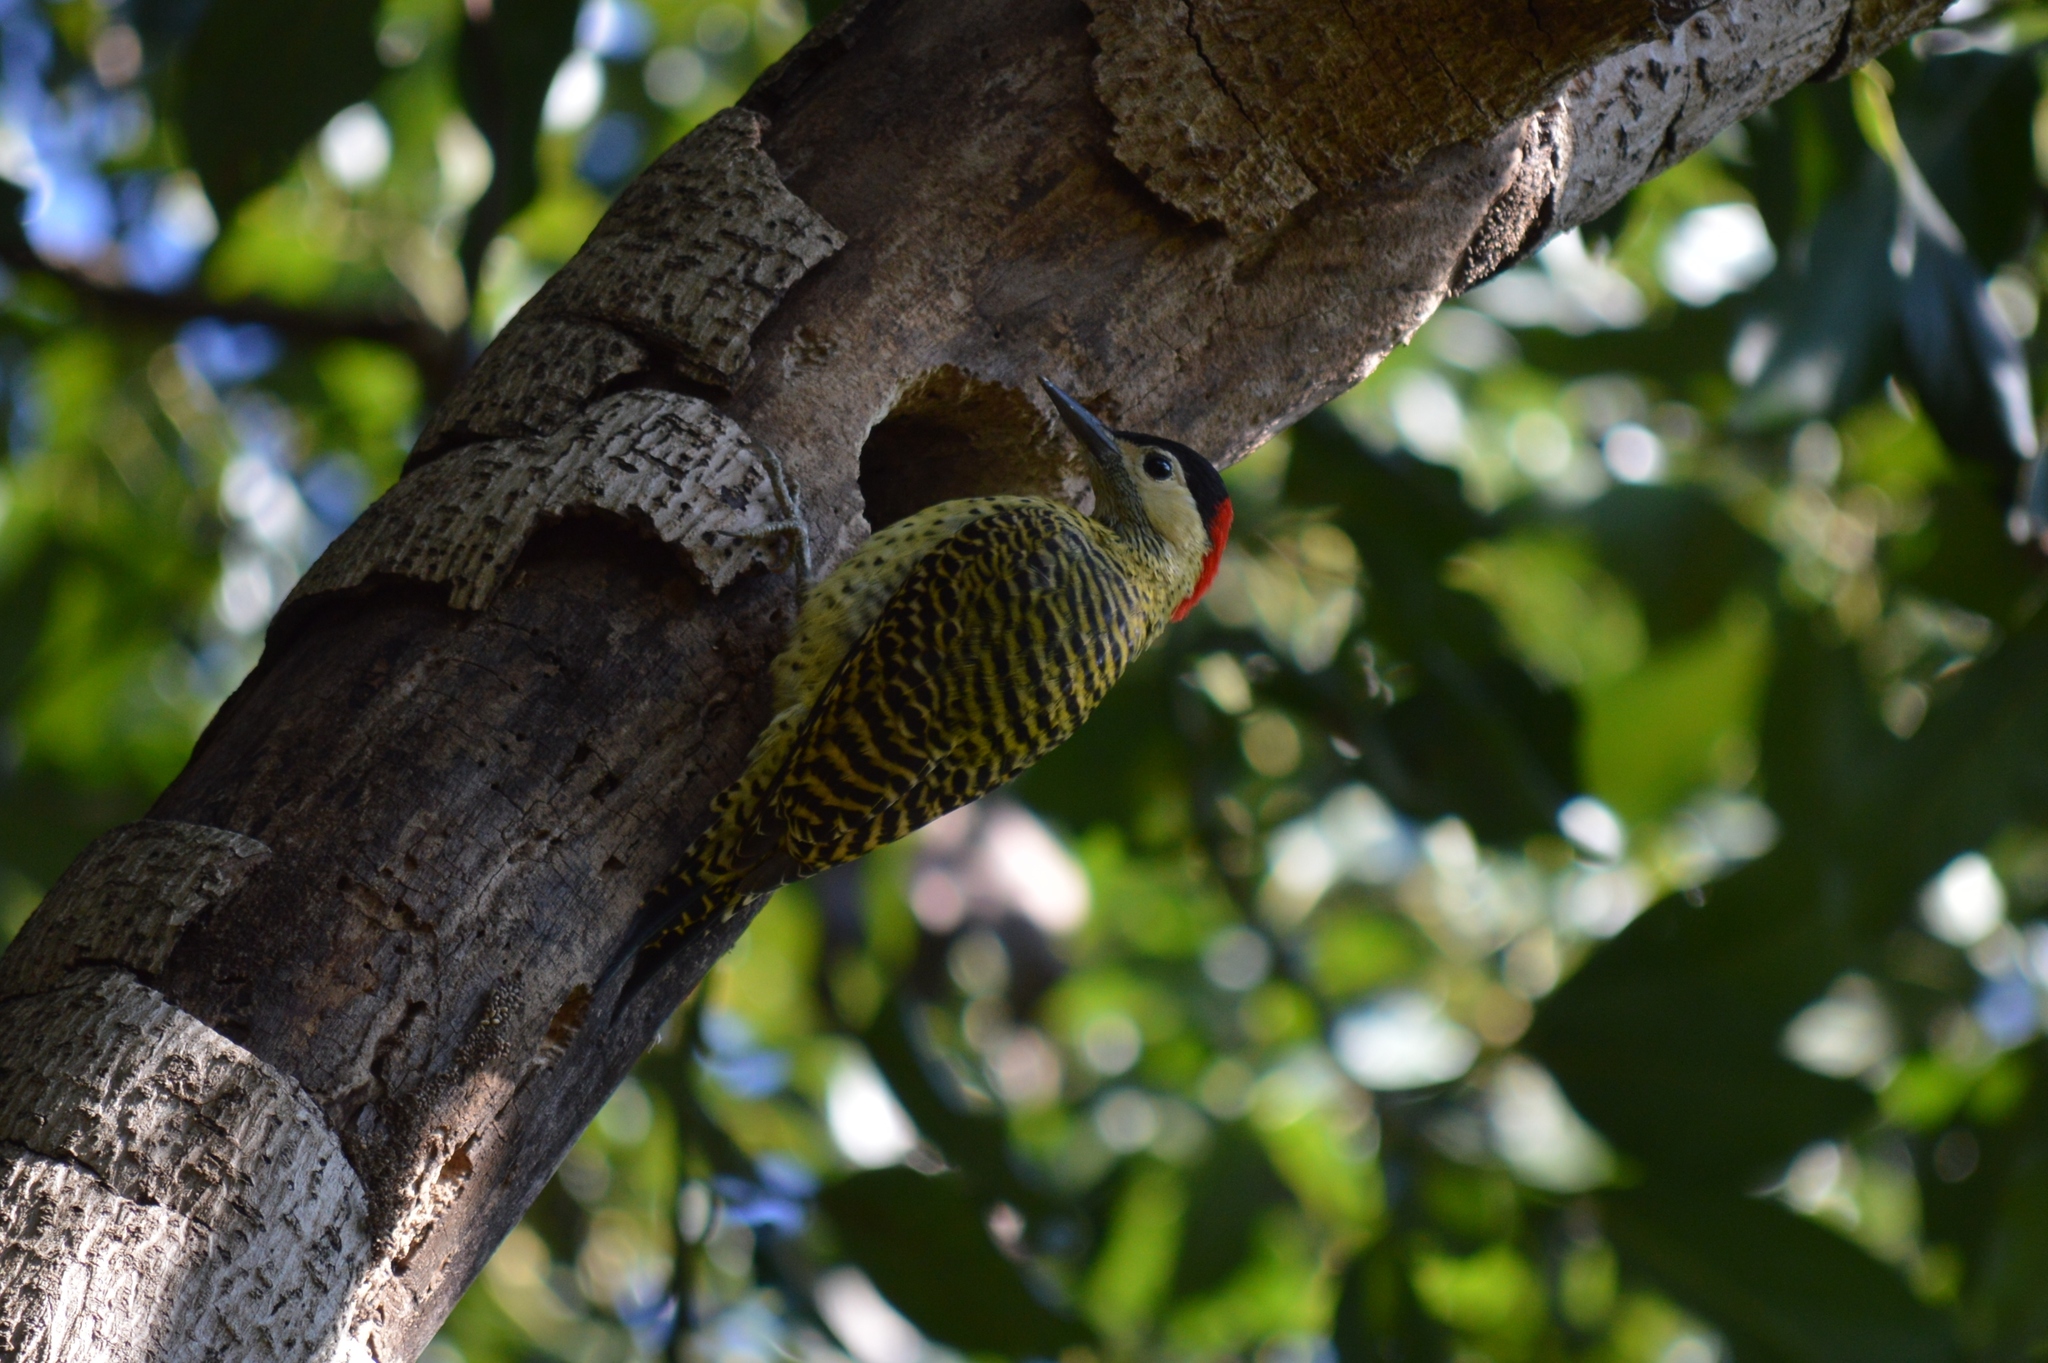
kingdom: Animalia
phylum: Chordata
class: Aves
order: Piciformes
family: Picidae
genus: Colaptes
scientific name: Colaptes melanochloros
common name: Green-barred woodpecker
